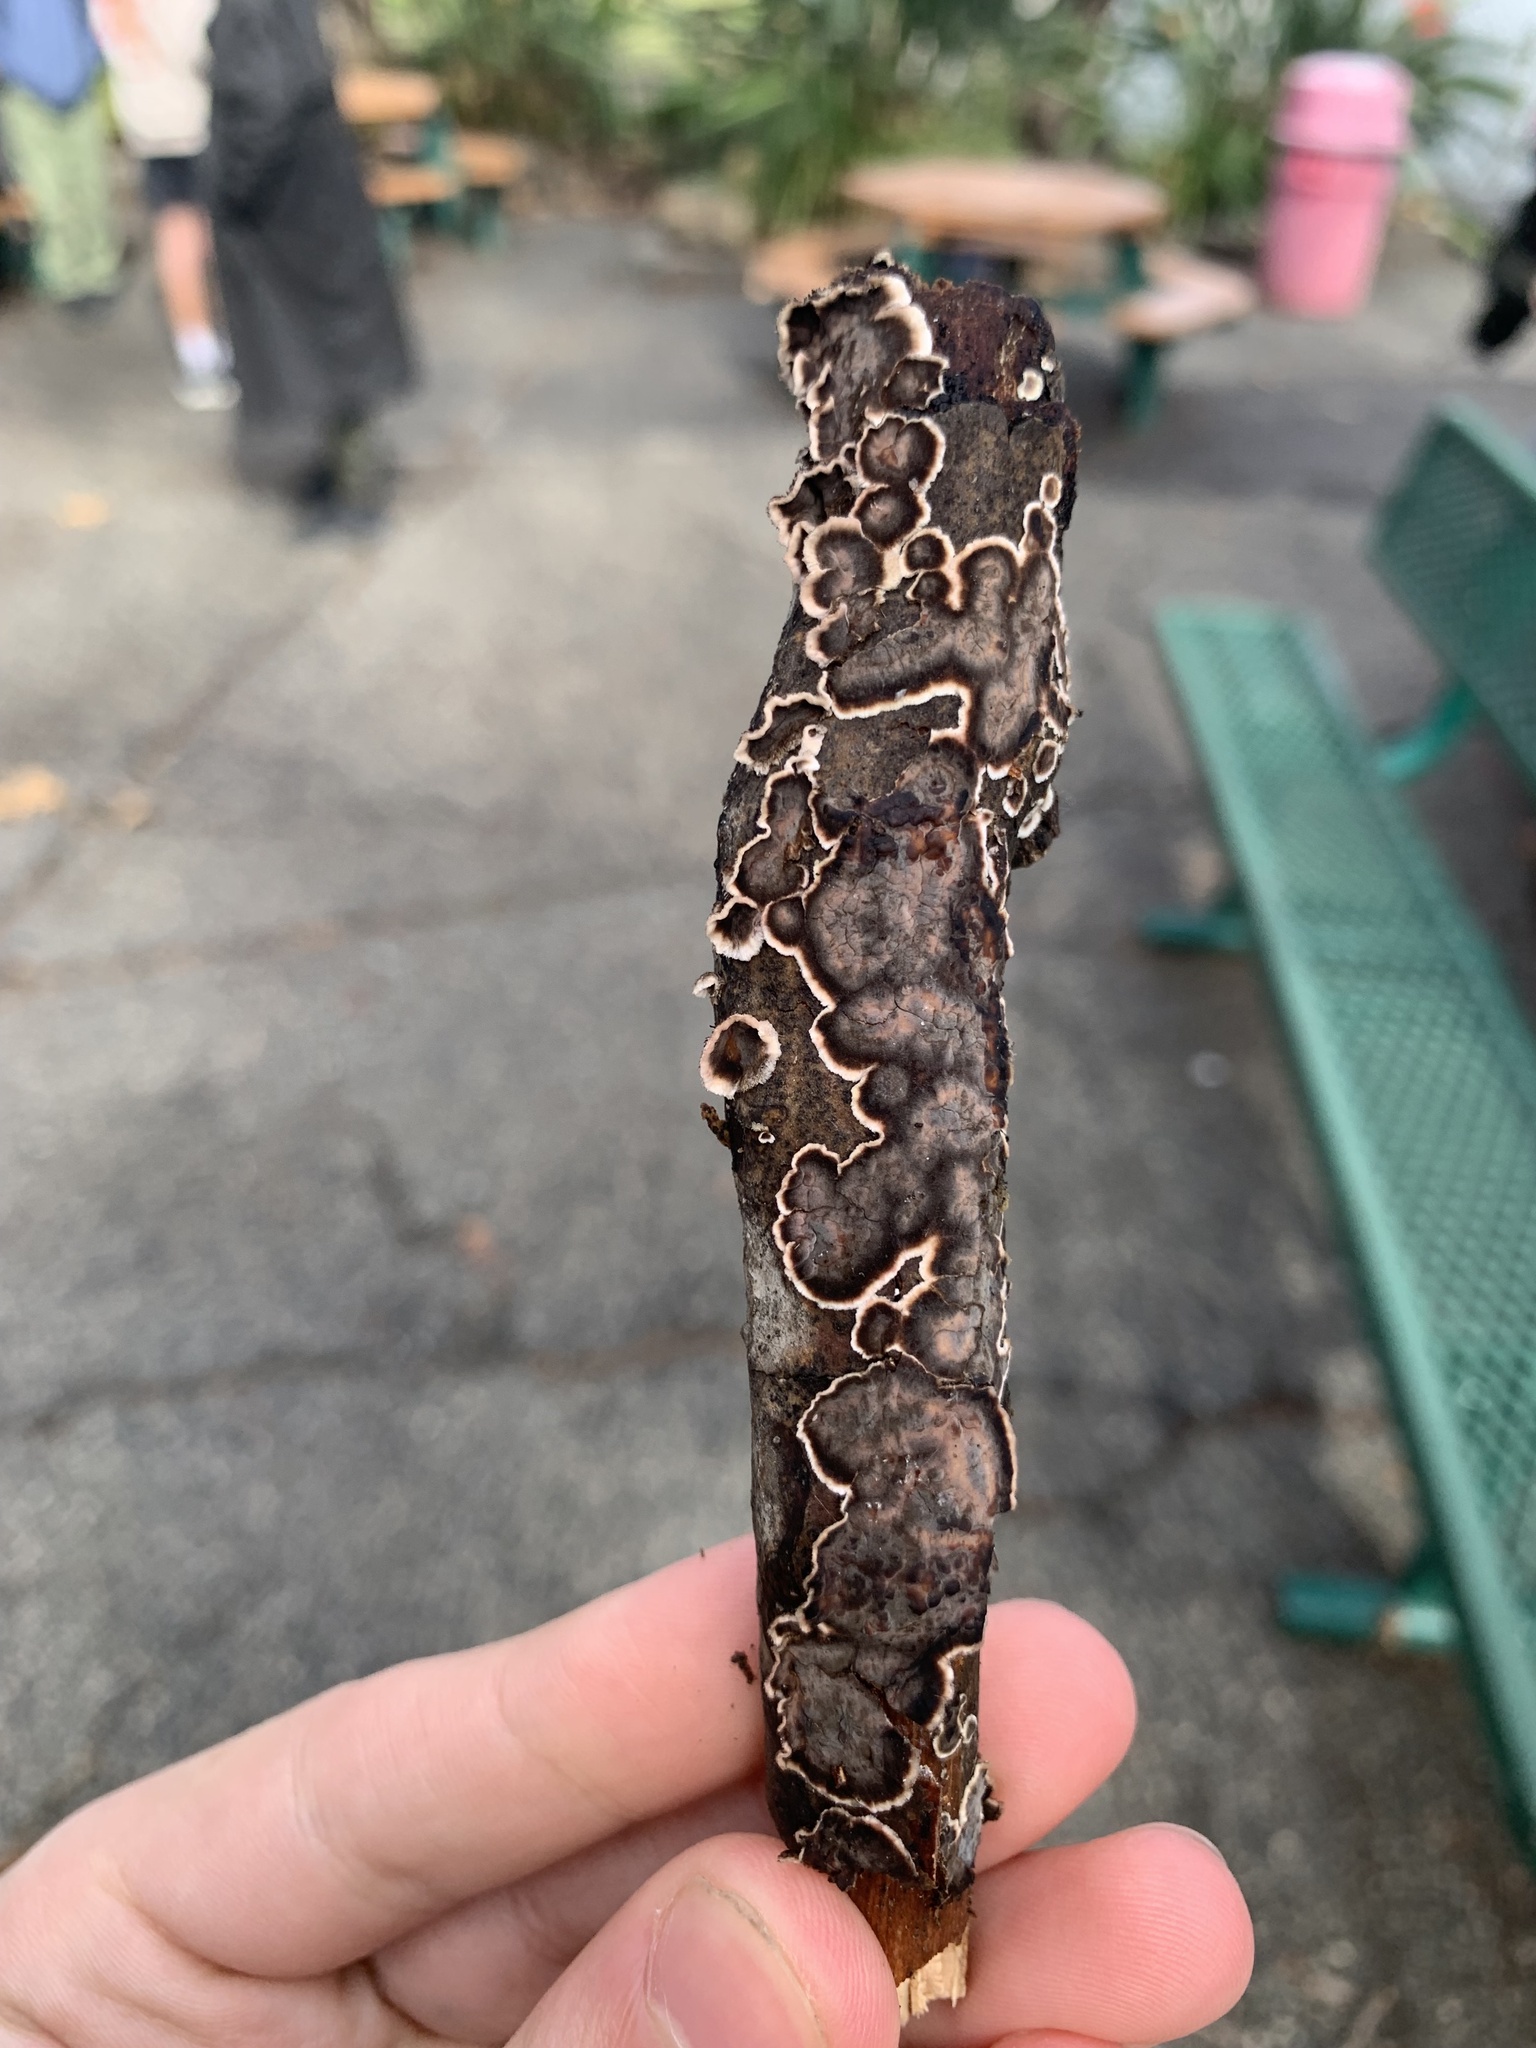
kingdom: Fungi
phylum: Basidiomycota
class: Agaricomycetes
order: Russulales
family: Peniophoraceae
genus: Peniophora
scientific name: Peniophora albobadia
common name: Giraffe spots
